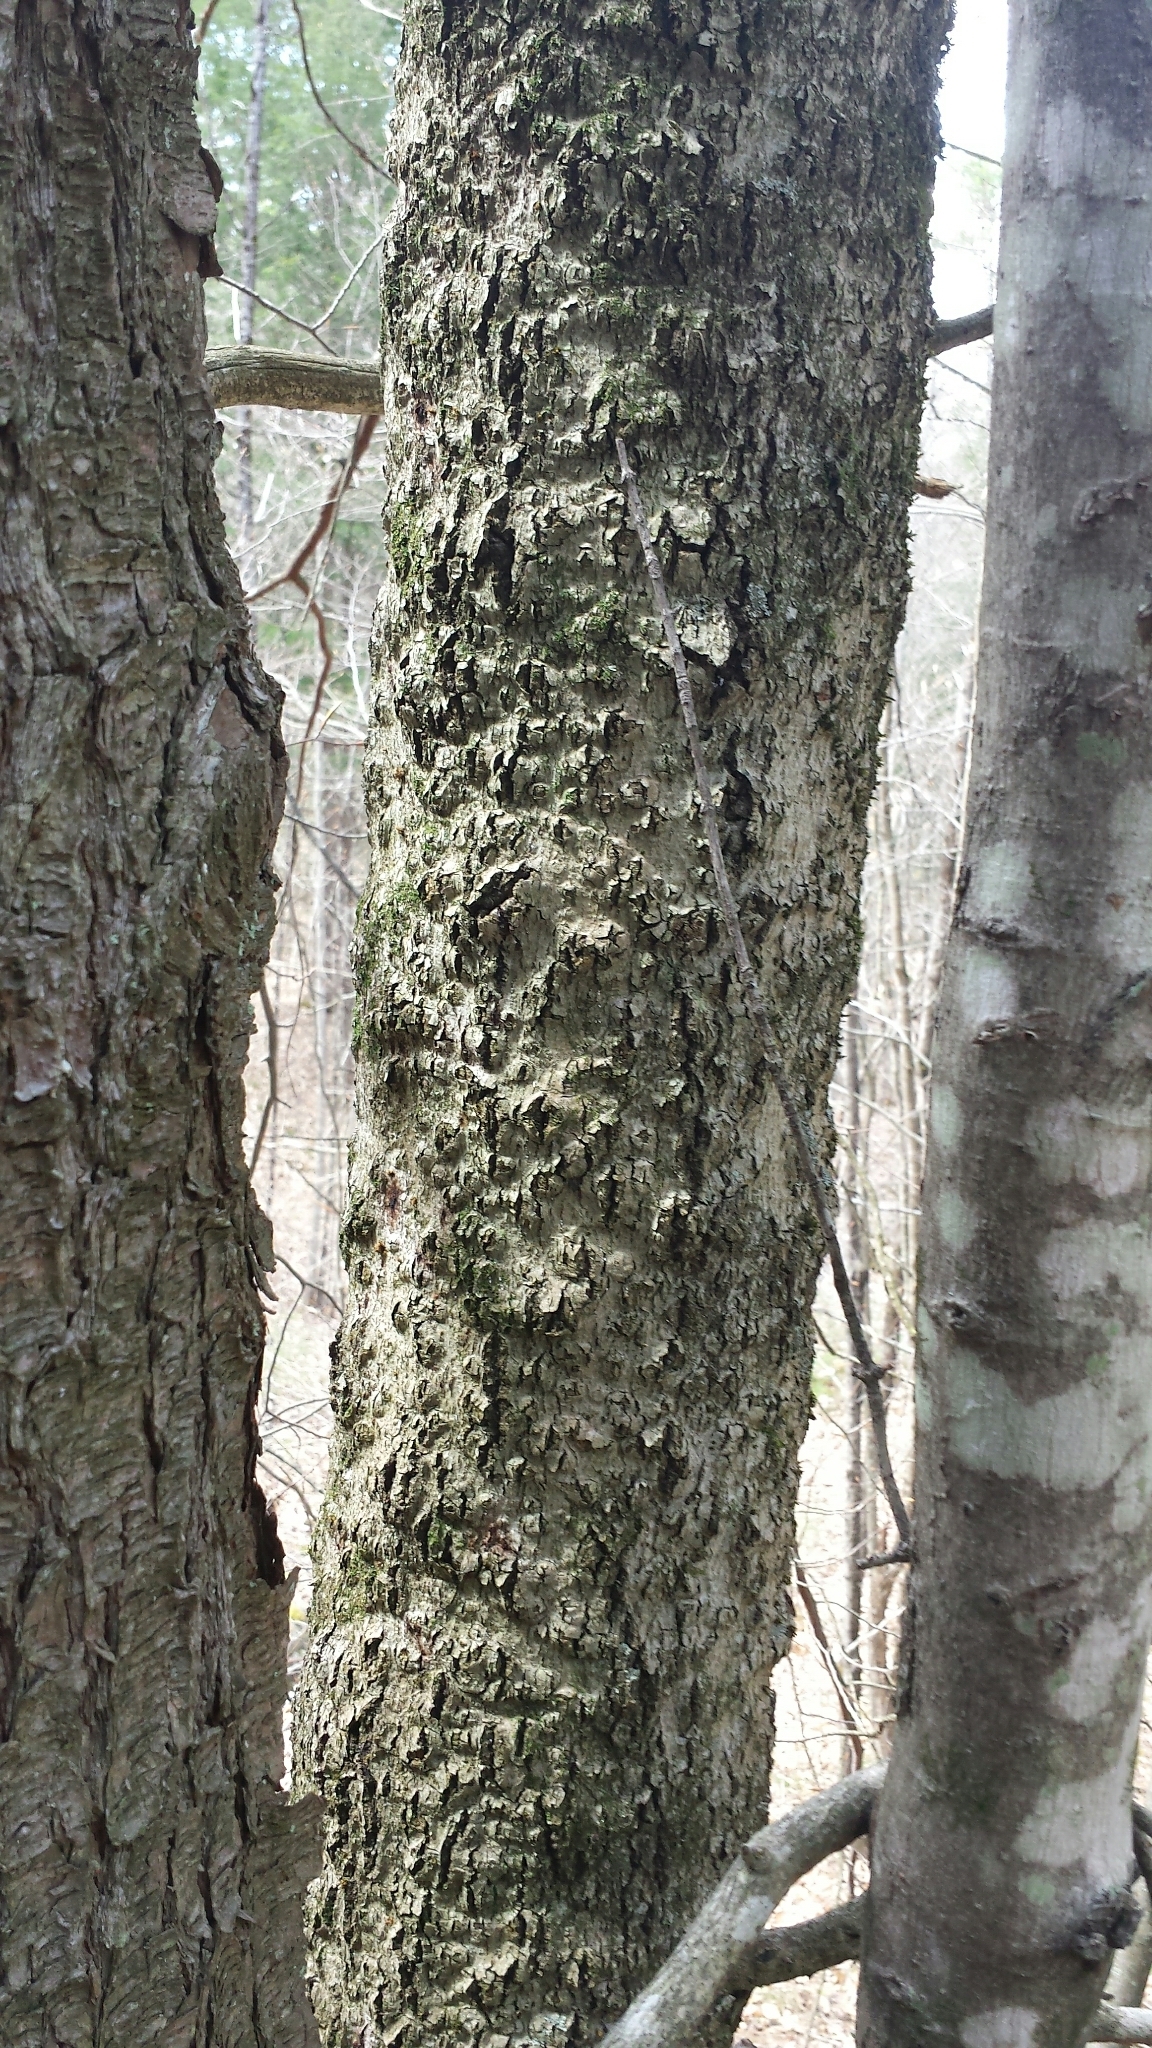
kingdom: Animalia
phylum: Arthropoda
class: Insecta
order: Hemiptera
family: Eriococcidae
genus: Cryptococcus
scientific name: Cryptococcus fagisuga
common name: Beech scale
